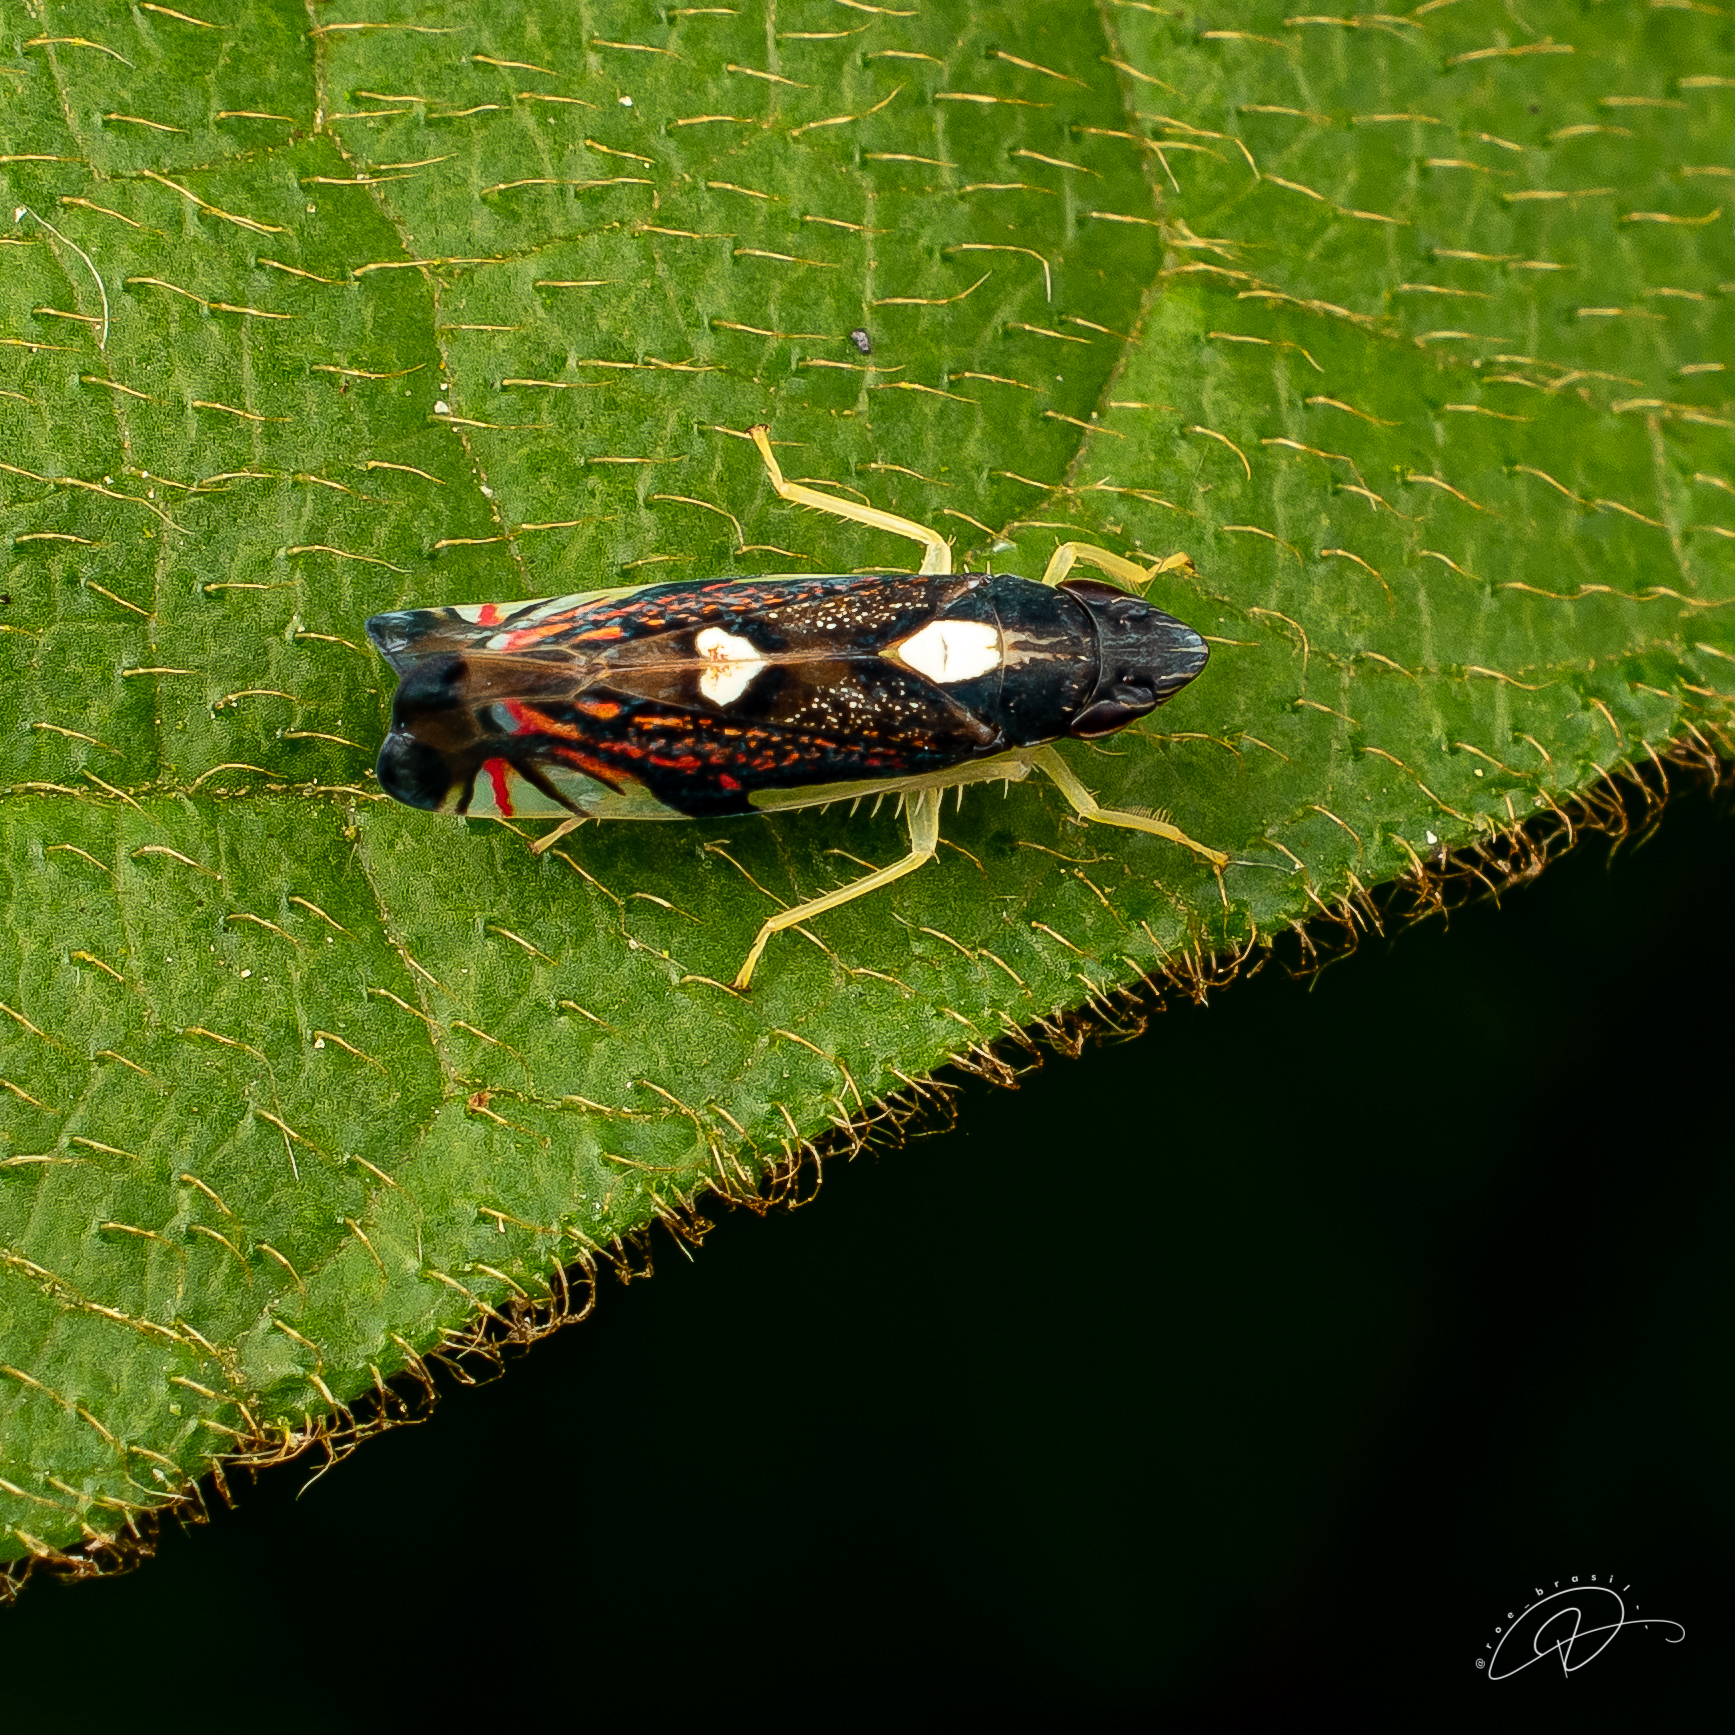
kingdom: Animalia
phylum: Arthropoda
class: Insecta
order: Hemiptera
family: Cicadellidae
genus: Diedrocephala
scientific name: Diedrocephala variegata
